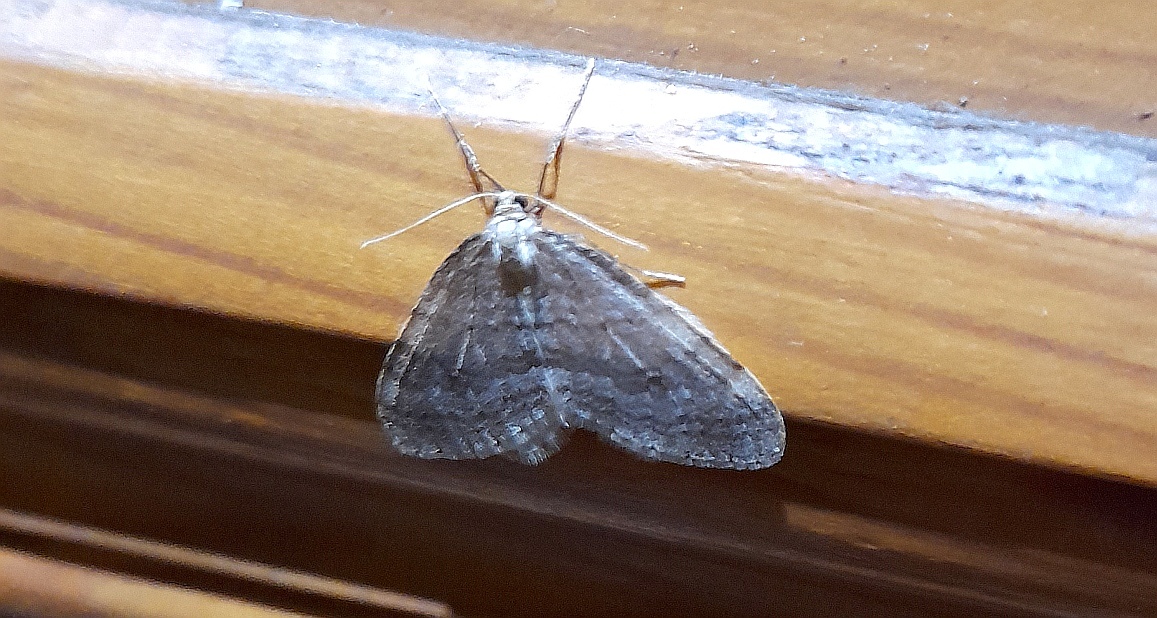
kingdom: Animalia
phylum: Arthropoda
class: Insecta
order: Lepidoptera
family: Geometridae
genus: Operophtera
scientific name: Operophtera fagata
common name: Northern winter moth
